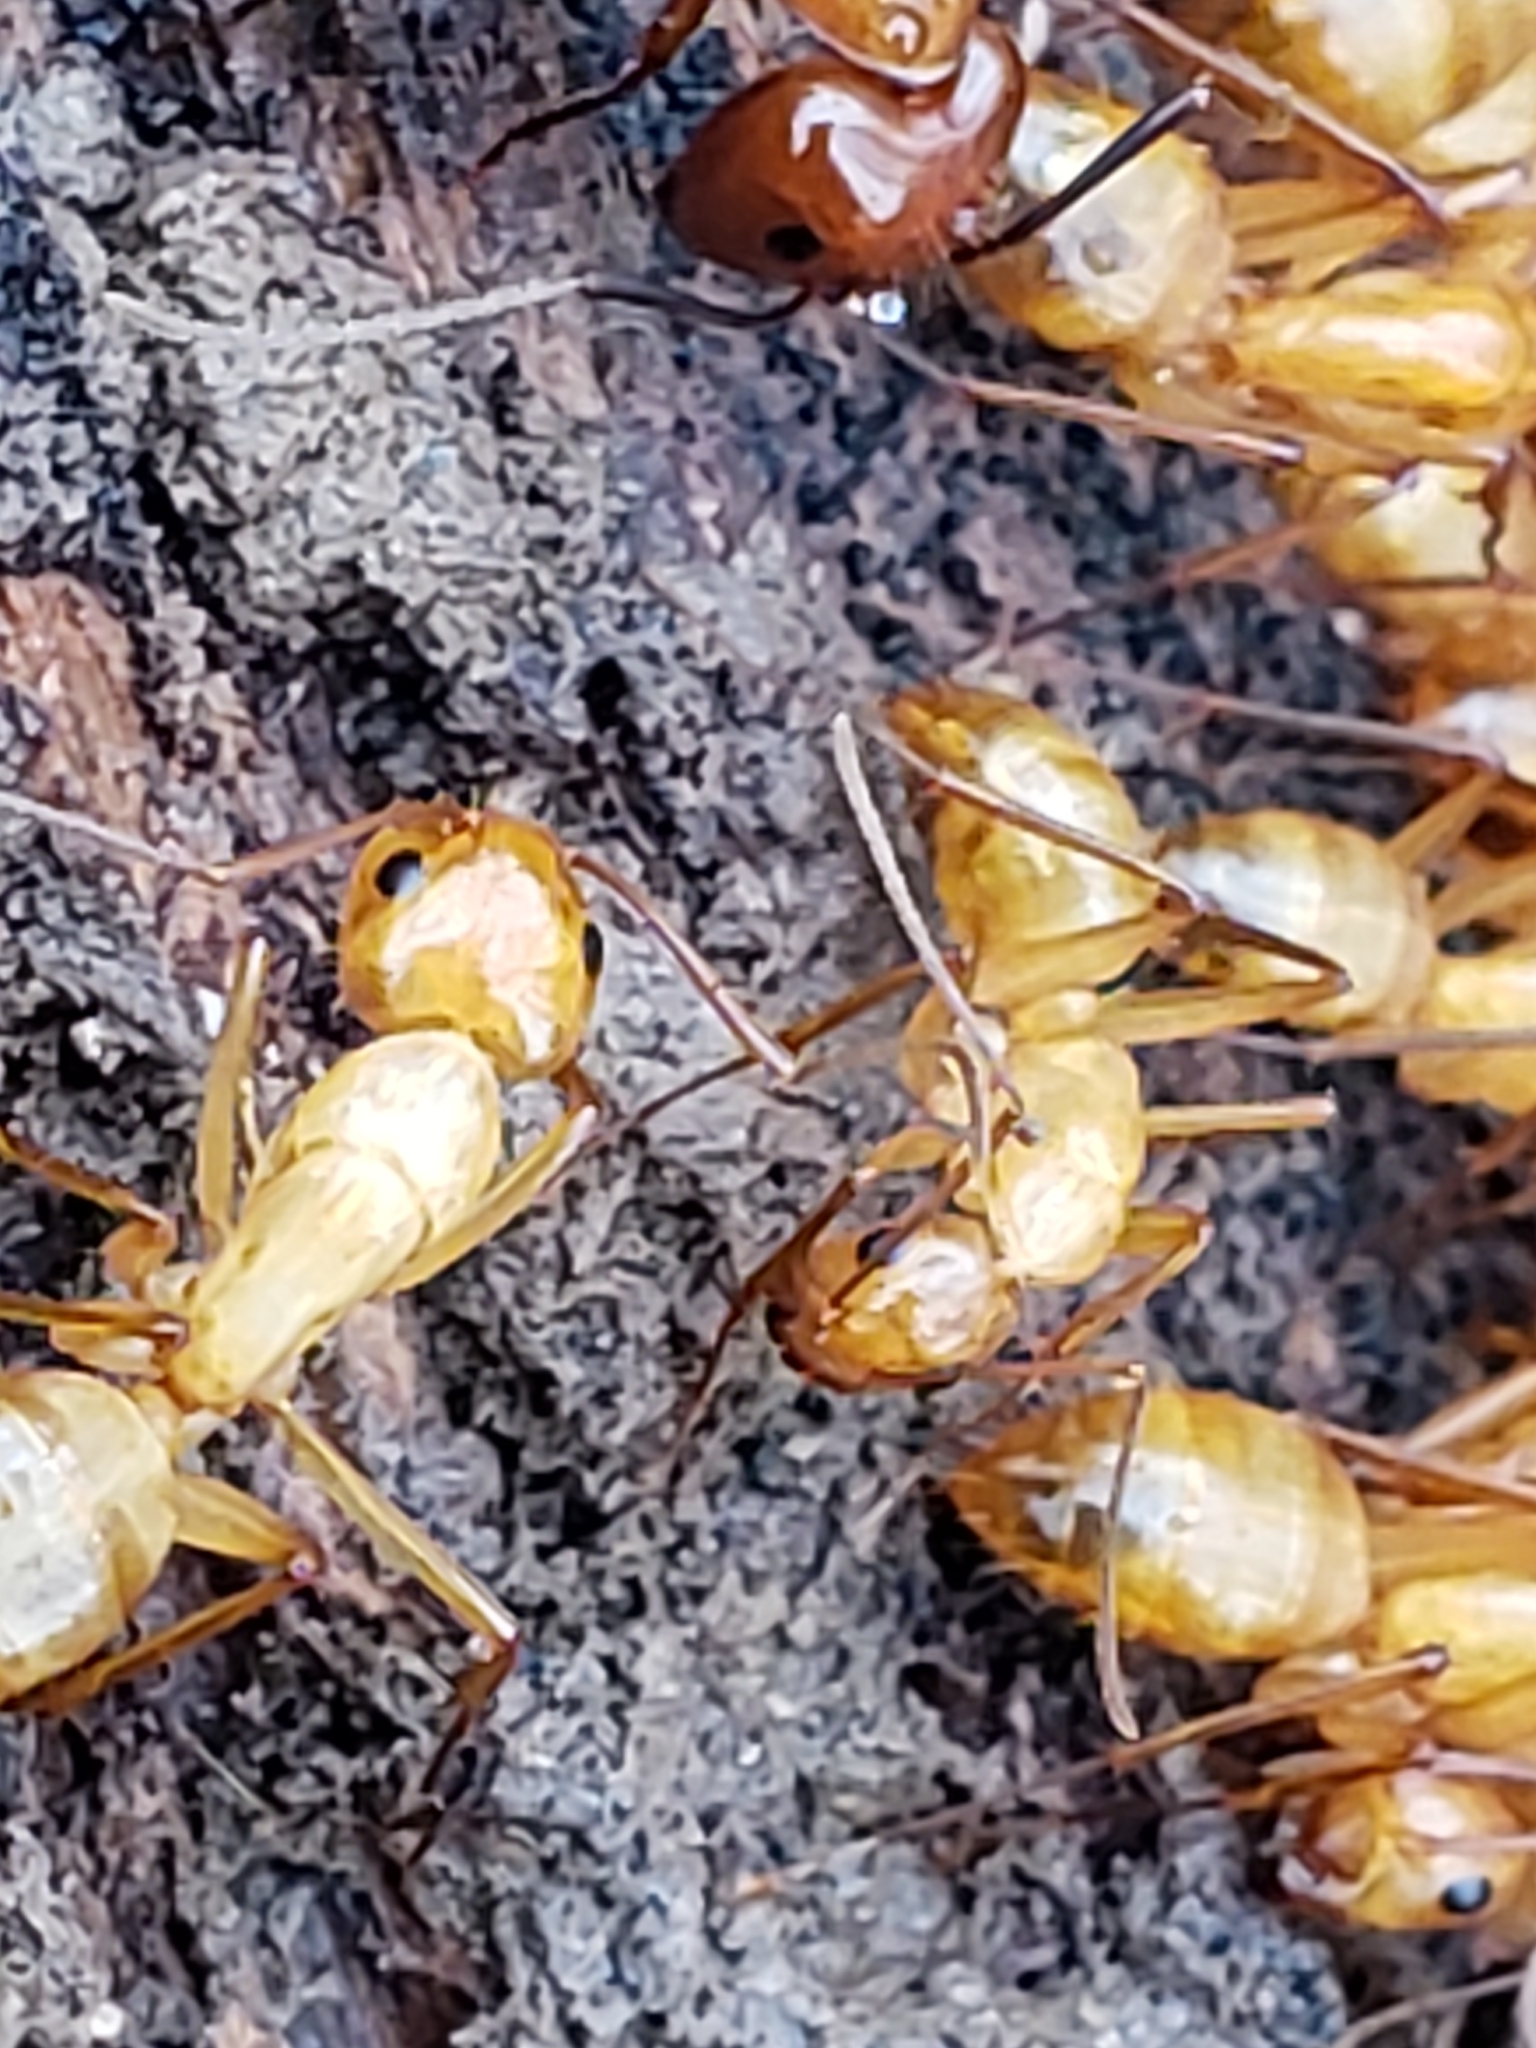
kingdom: Animalia
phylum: Arthropoda
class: Insecta
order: Hymenoptera
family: Formicidae
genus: Camponotus
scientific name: Camponotus castaneus
